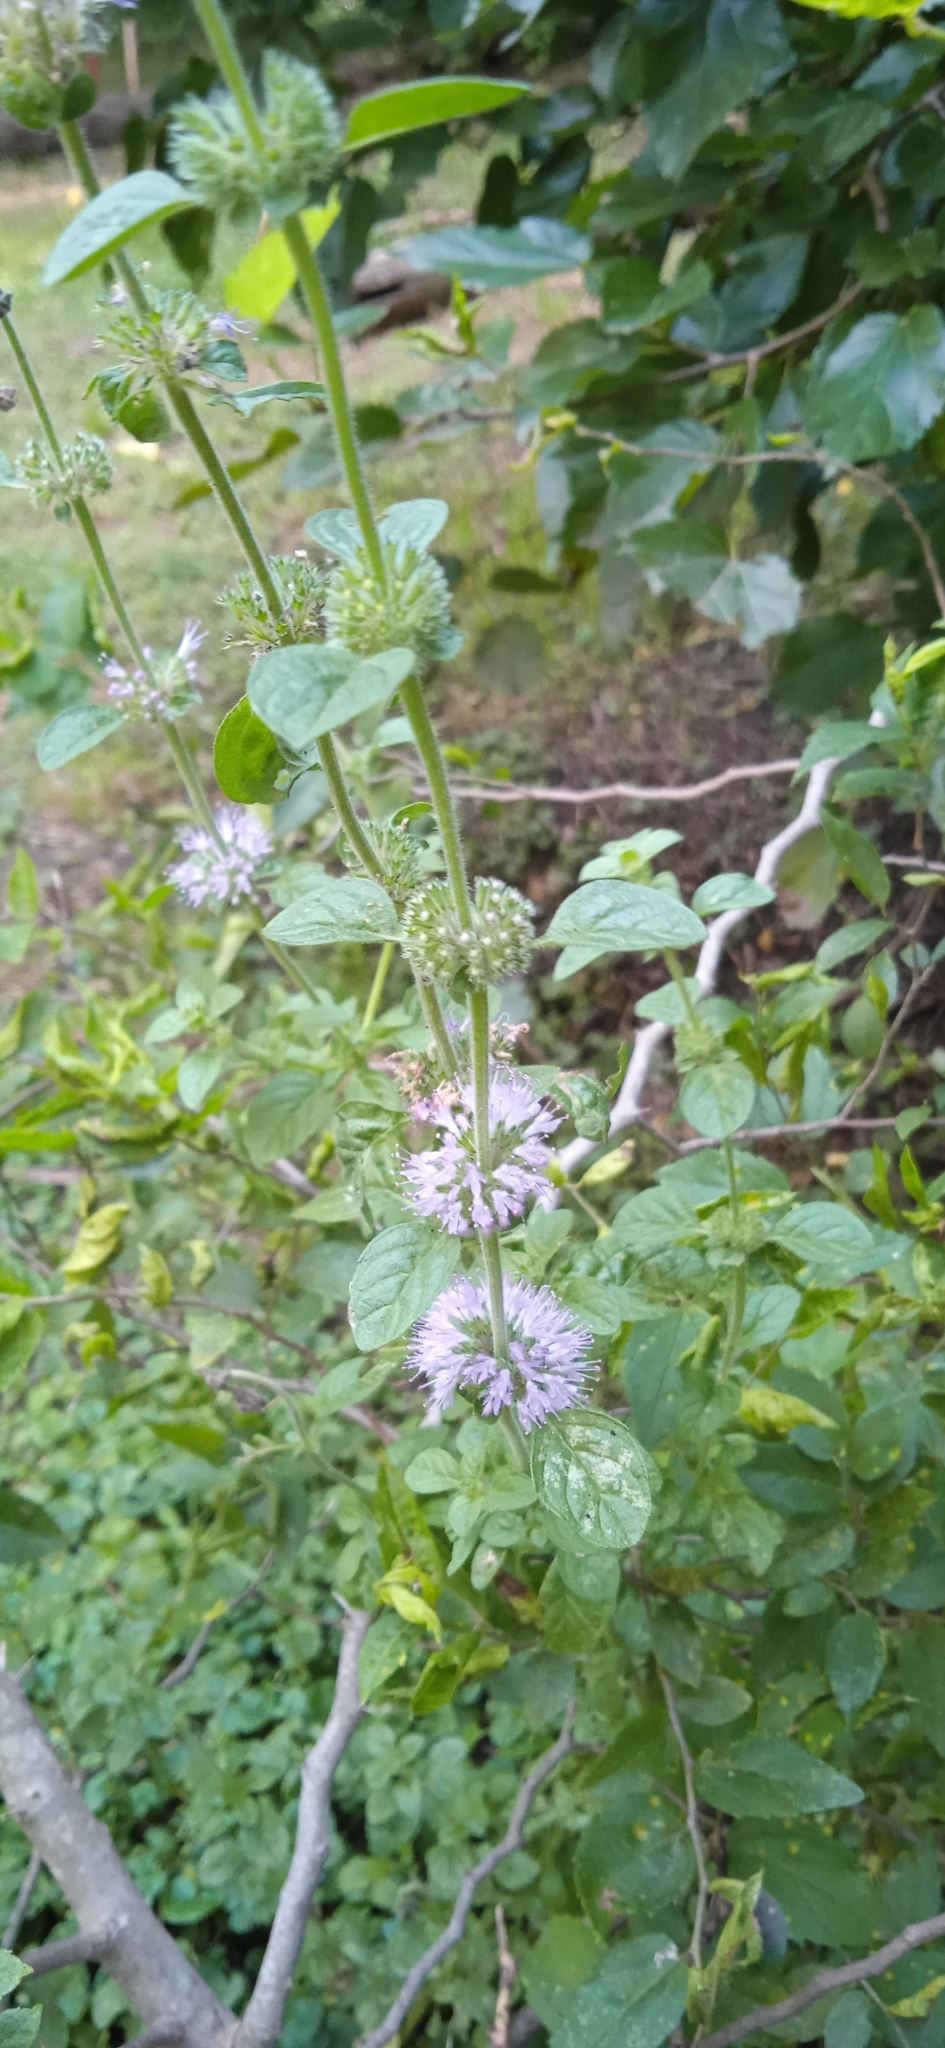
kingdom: Plantae
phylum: Tracheophyta
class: Magnoliopsida
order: Lamiales
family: Lamiaceae
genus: Mentha
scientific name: Mentha pulegium
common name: Pennyroyal
